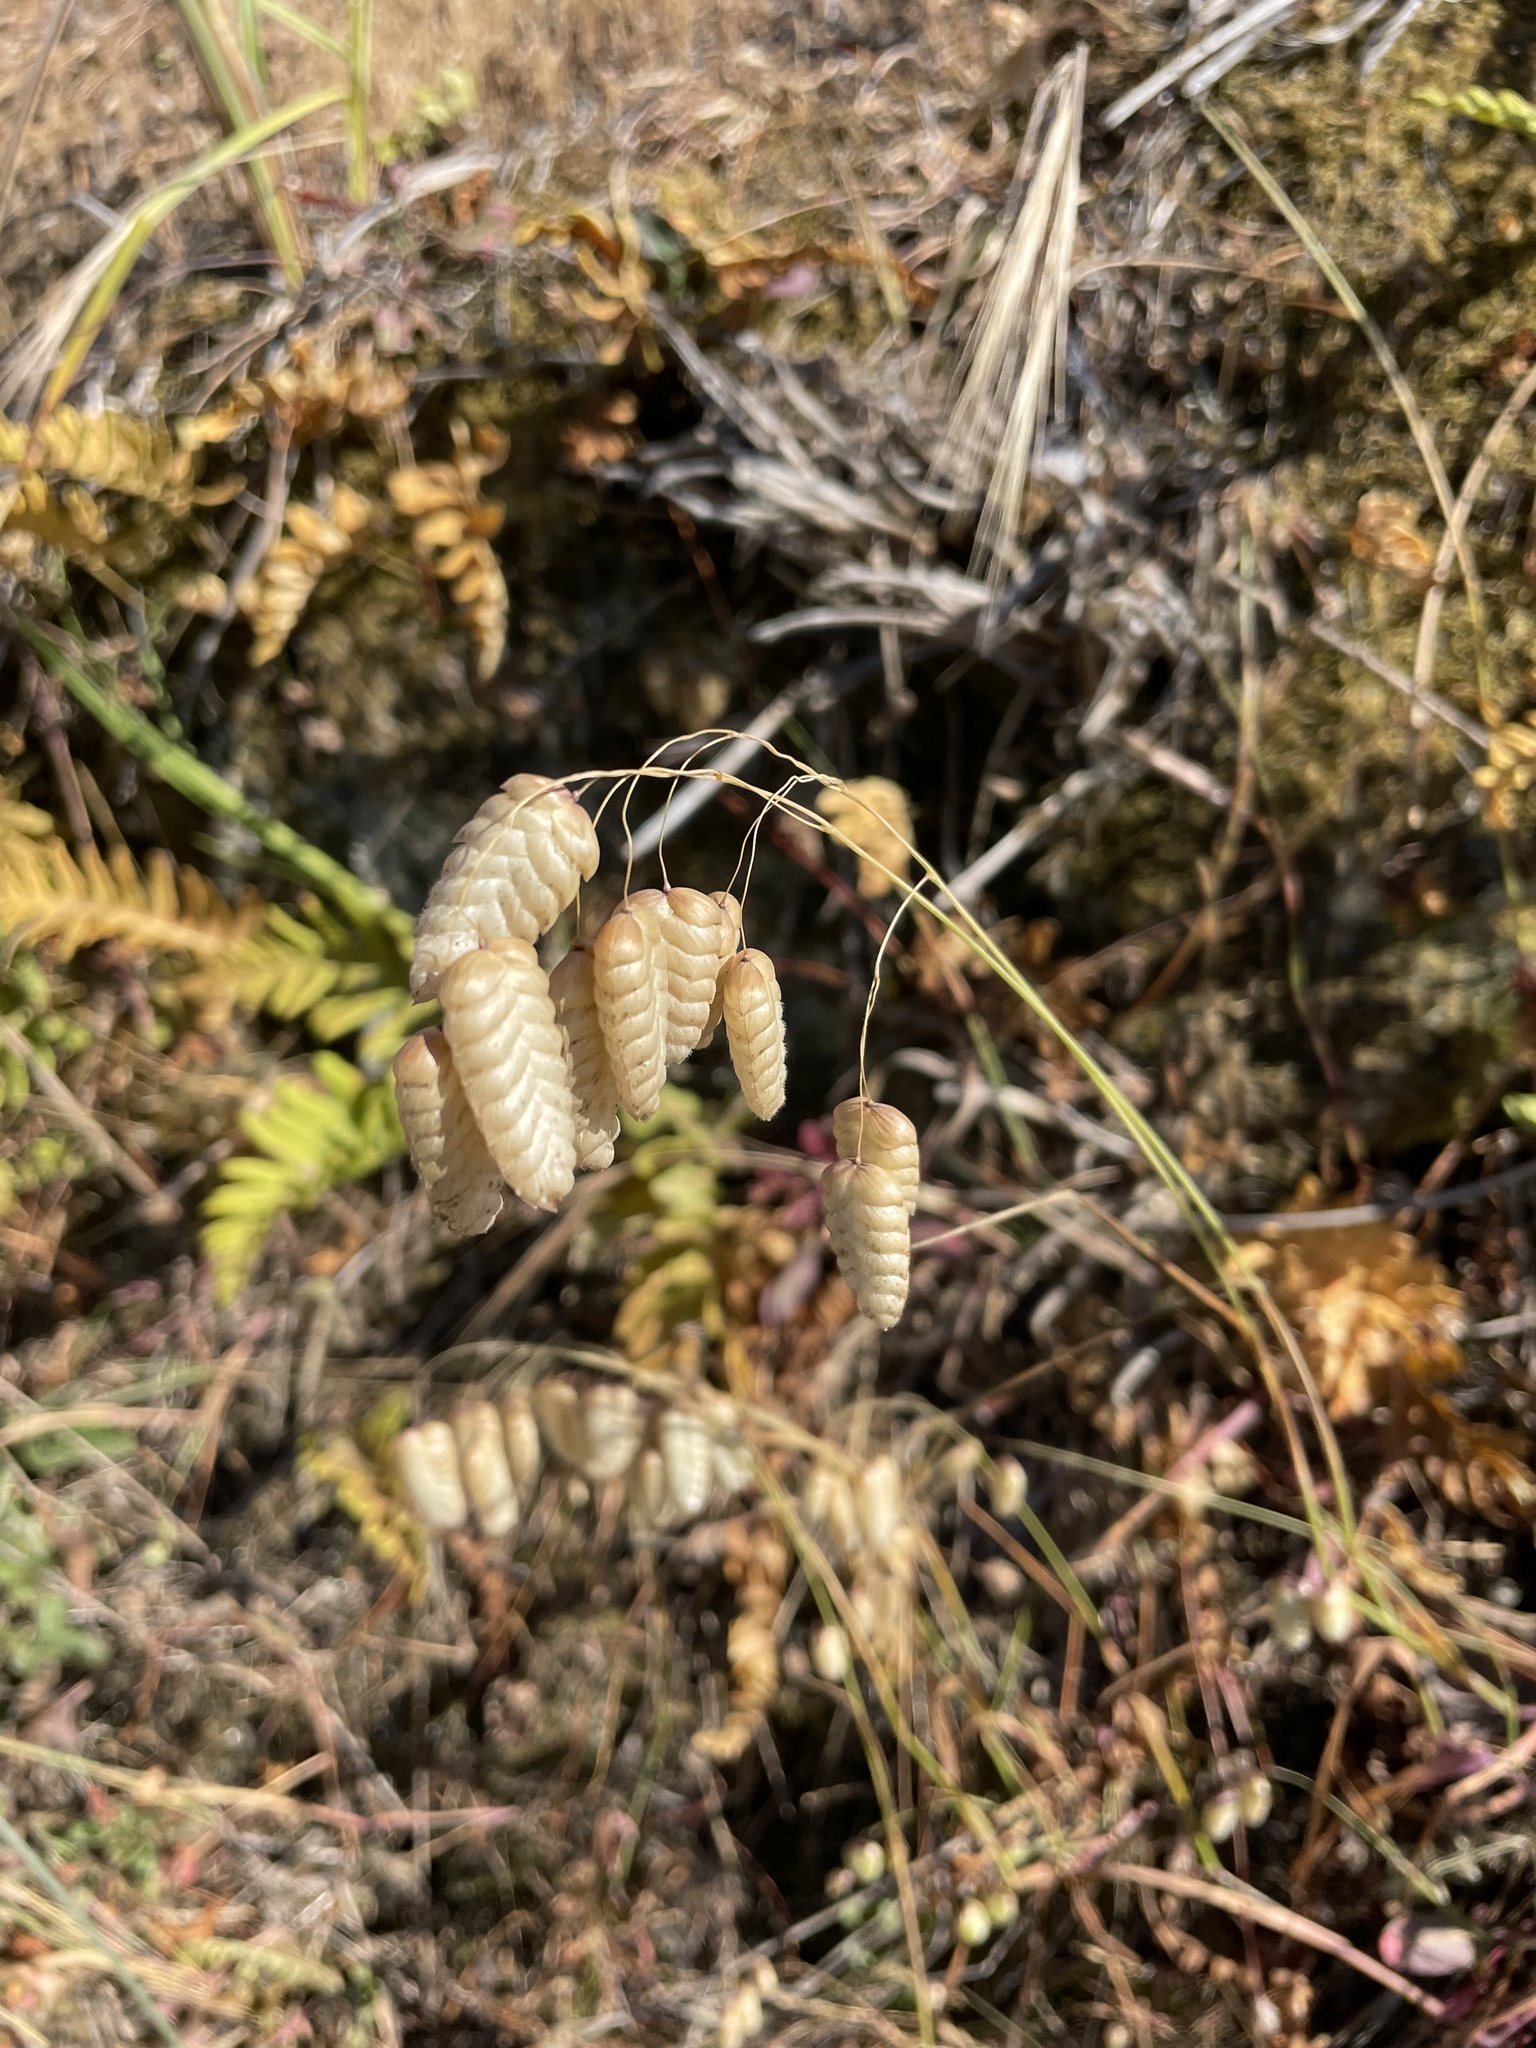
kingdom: Plantae
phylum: Tracheophyta
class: Liliopsida
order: Poales
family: Poaceae
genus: Briza
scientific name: Briza maxima
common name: Big quakinggrass
